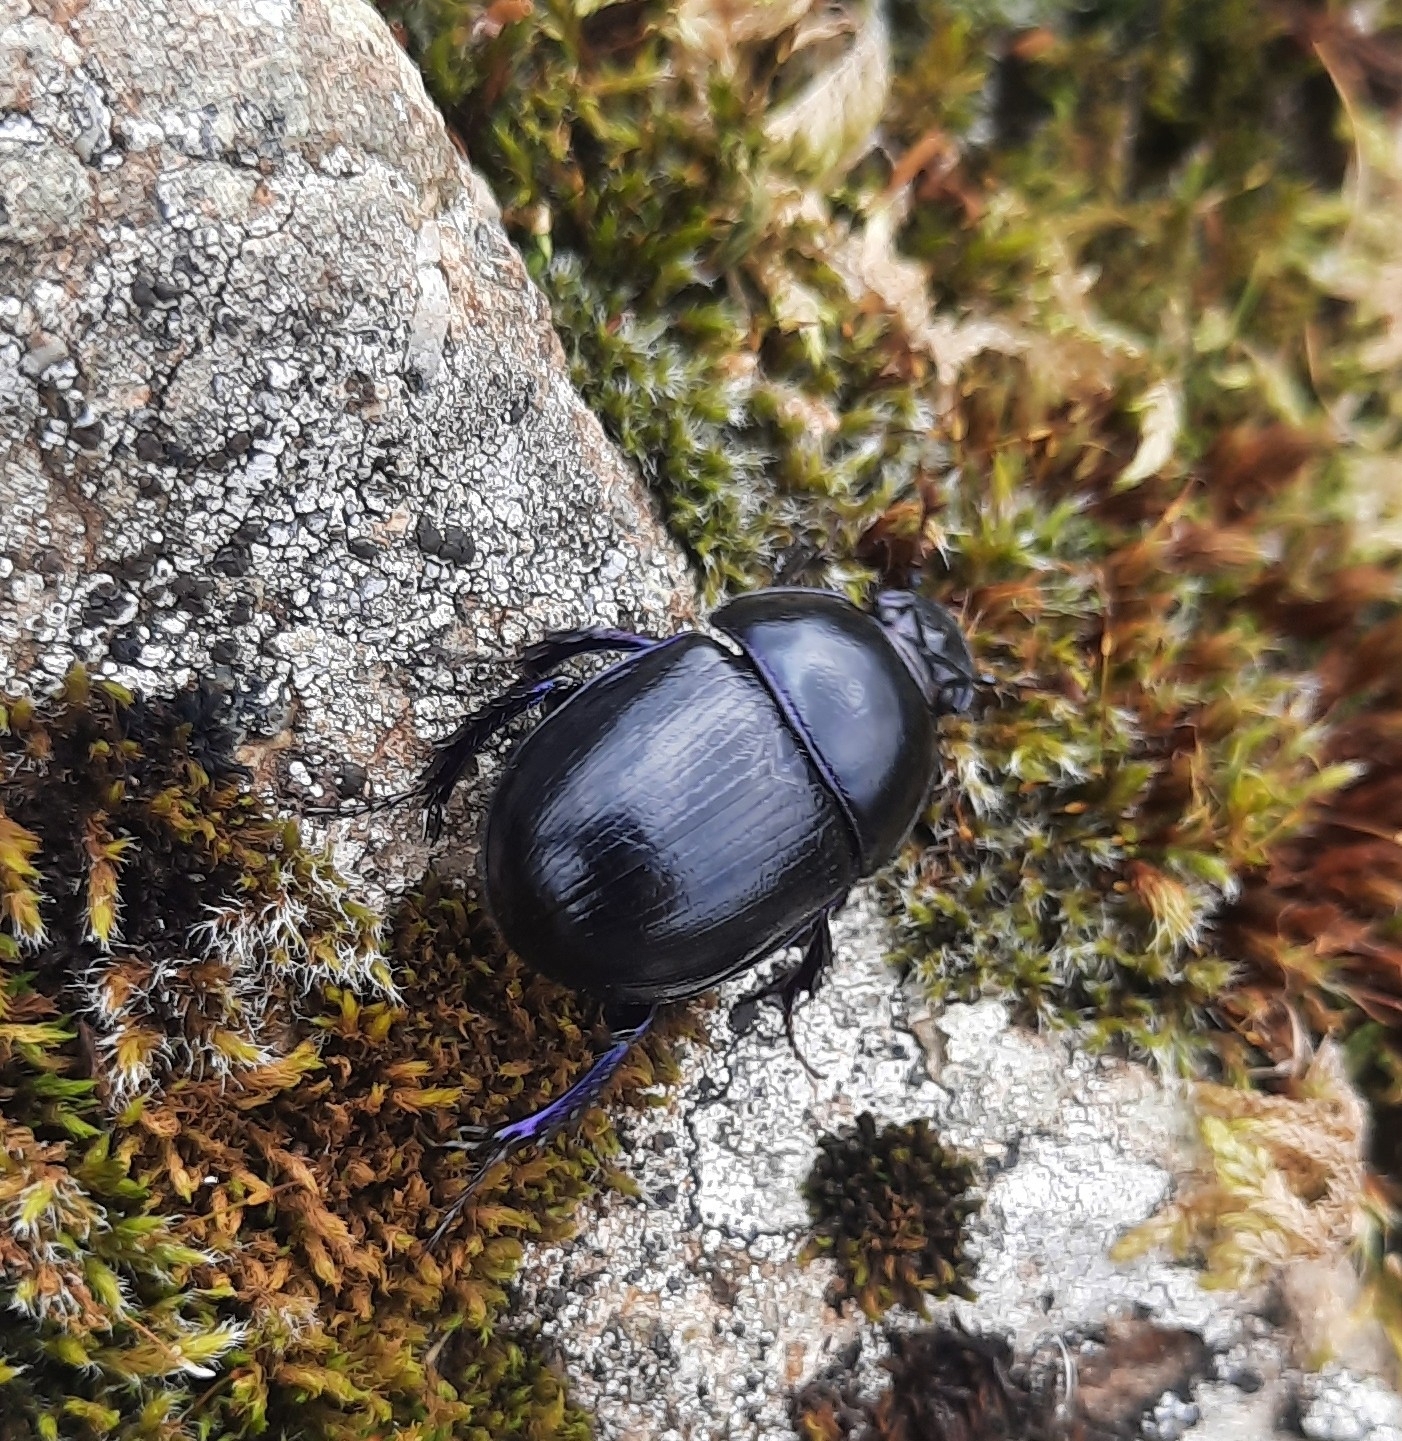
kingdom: Animalia
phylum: Arthropoda
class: Insecta
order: Coleoptera
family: Geotrupidae
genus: Anoplotrupes
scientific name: Anoplotrupes stercorosus
